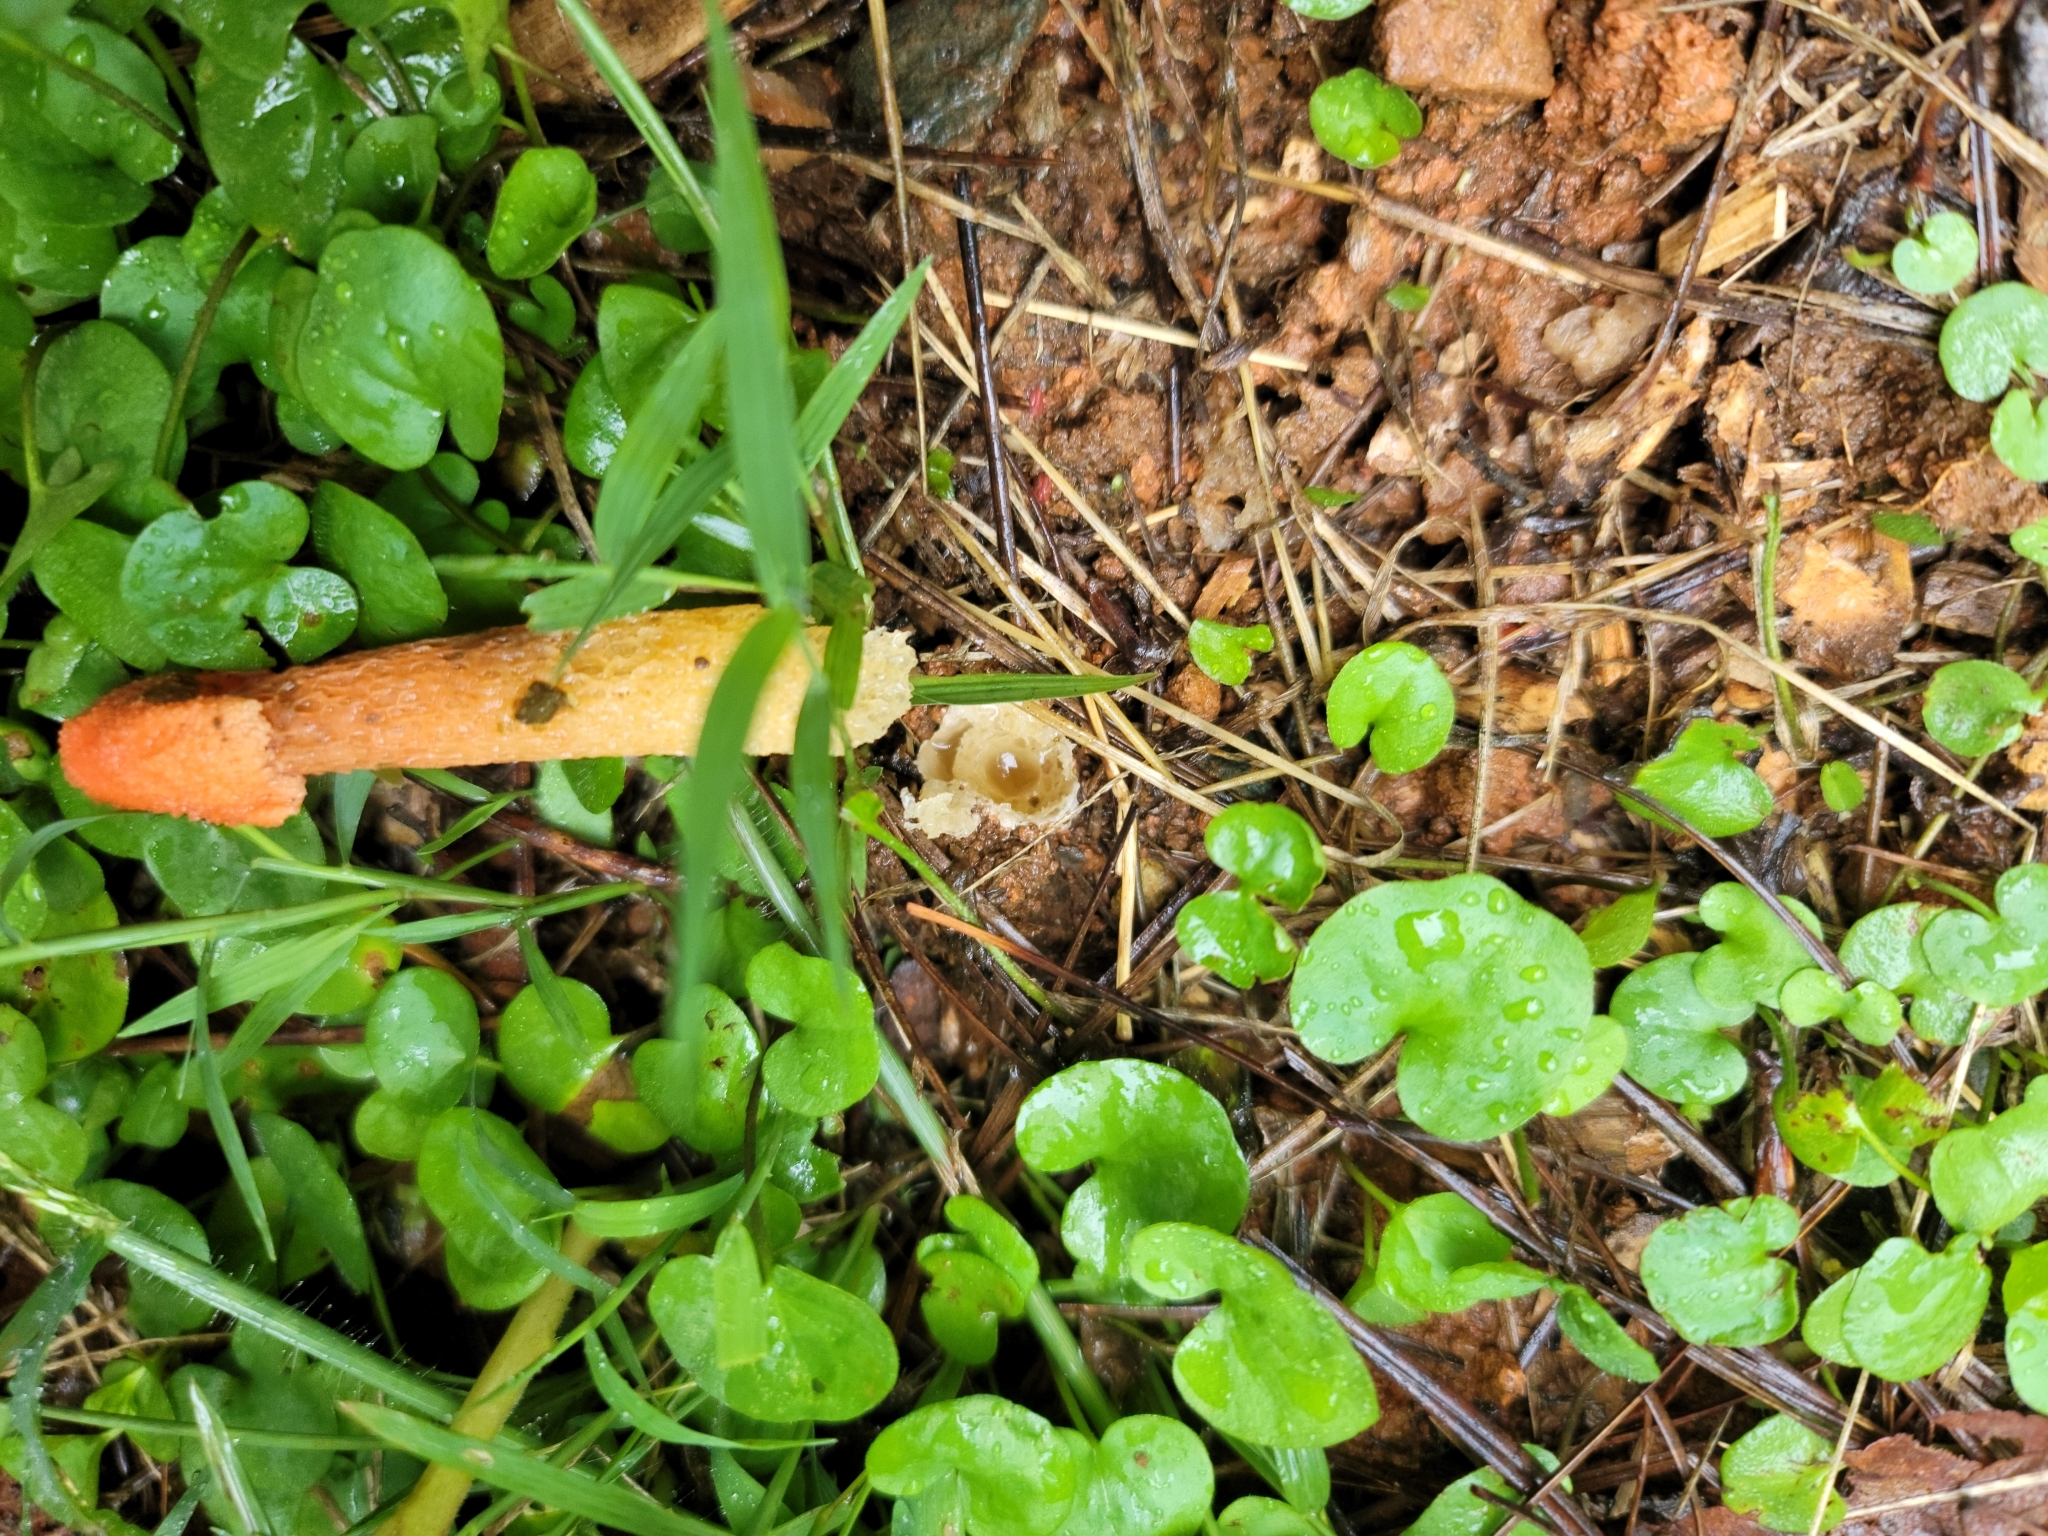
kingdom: Fungi
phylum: Basidiomycota
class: Agaricomycetes
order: Phallales
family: Phallaceae
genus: Phallus
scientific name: Phallus rugulosus
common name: Wrinkly stinkhorn
